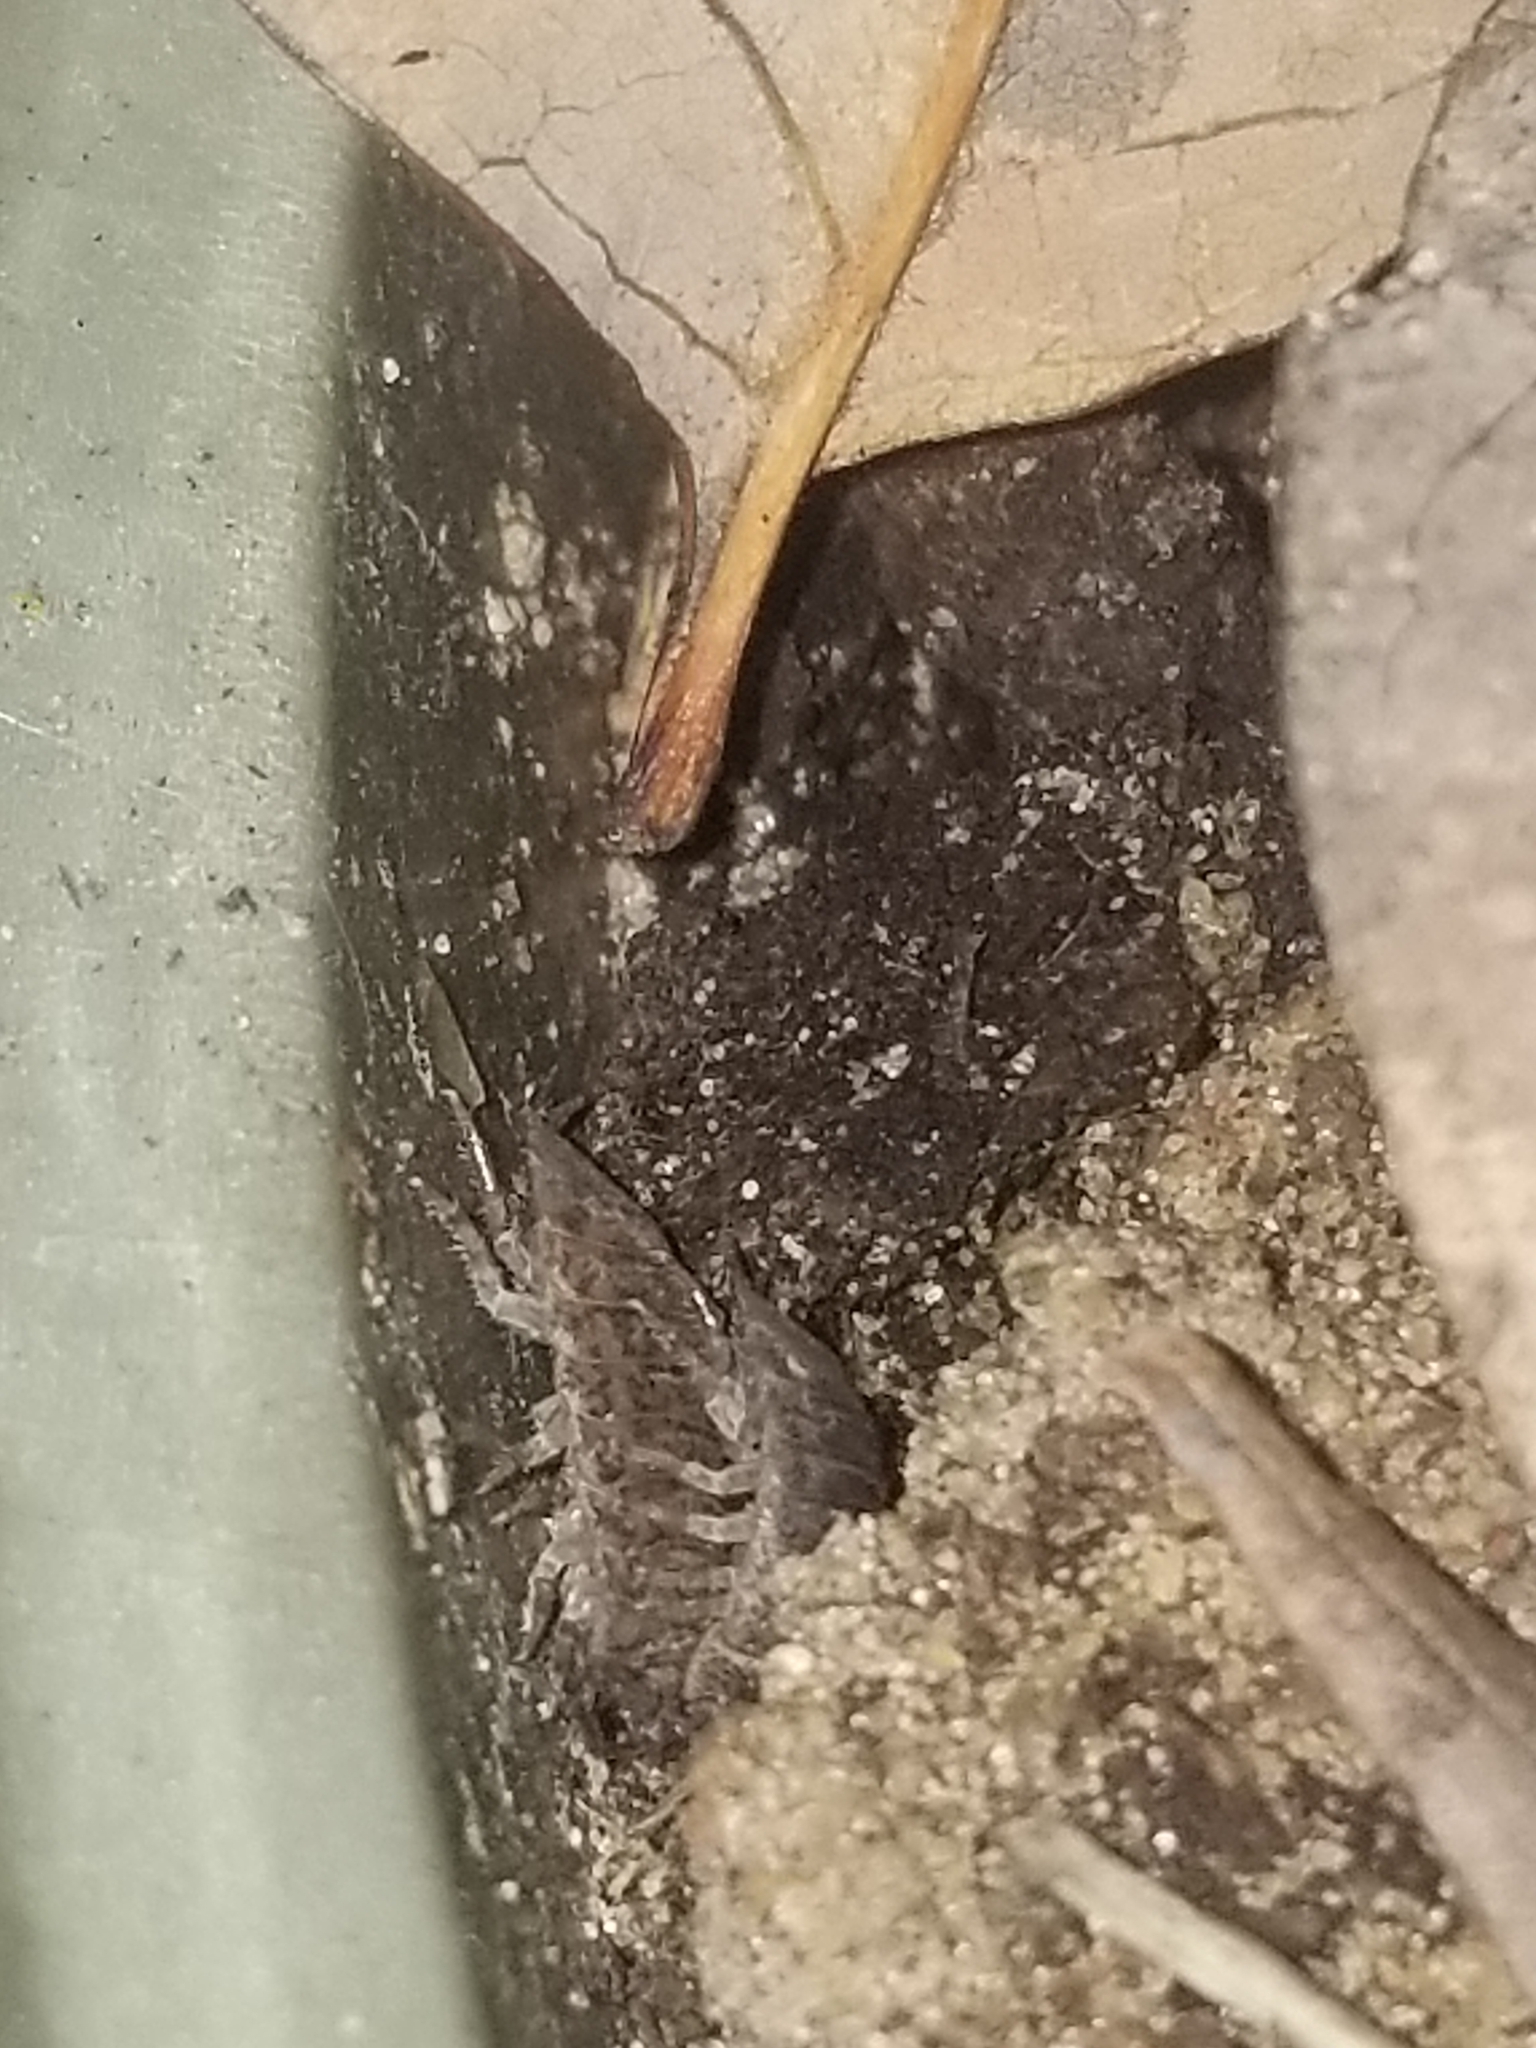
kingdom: Animalia
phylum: Arthropoda
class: Malacostraca
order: Isopoda
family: Trachelipodidae
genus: Trachelipus
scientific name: Trachelipus rathkii
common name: Isopod
